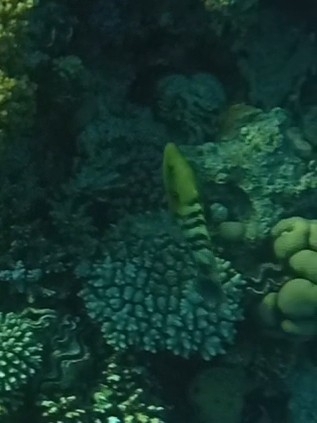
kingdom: Animalia
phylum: Chordata
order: Perciformes
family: Labridae
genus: Cheilinus
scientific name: Cheilinus lunulatus
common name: Broomtail wrasse
